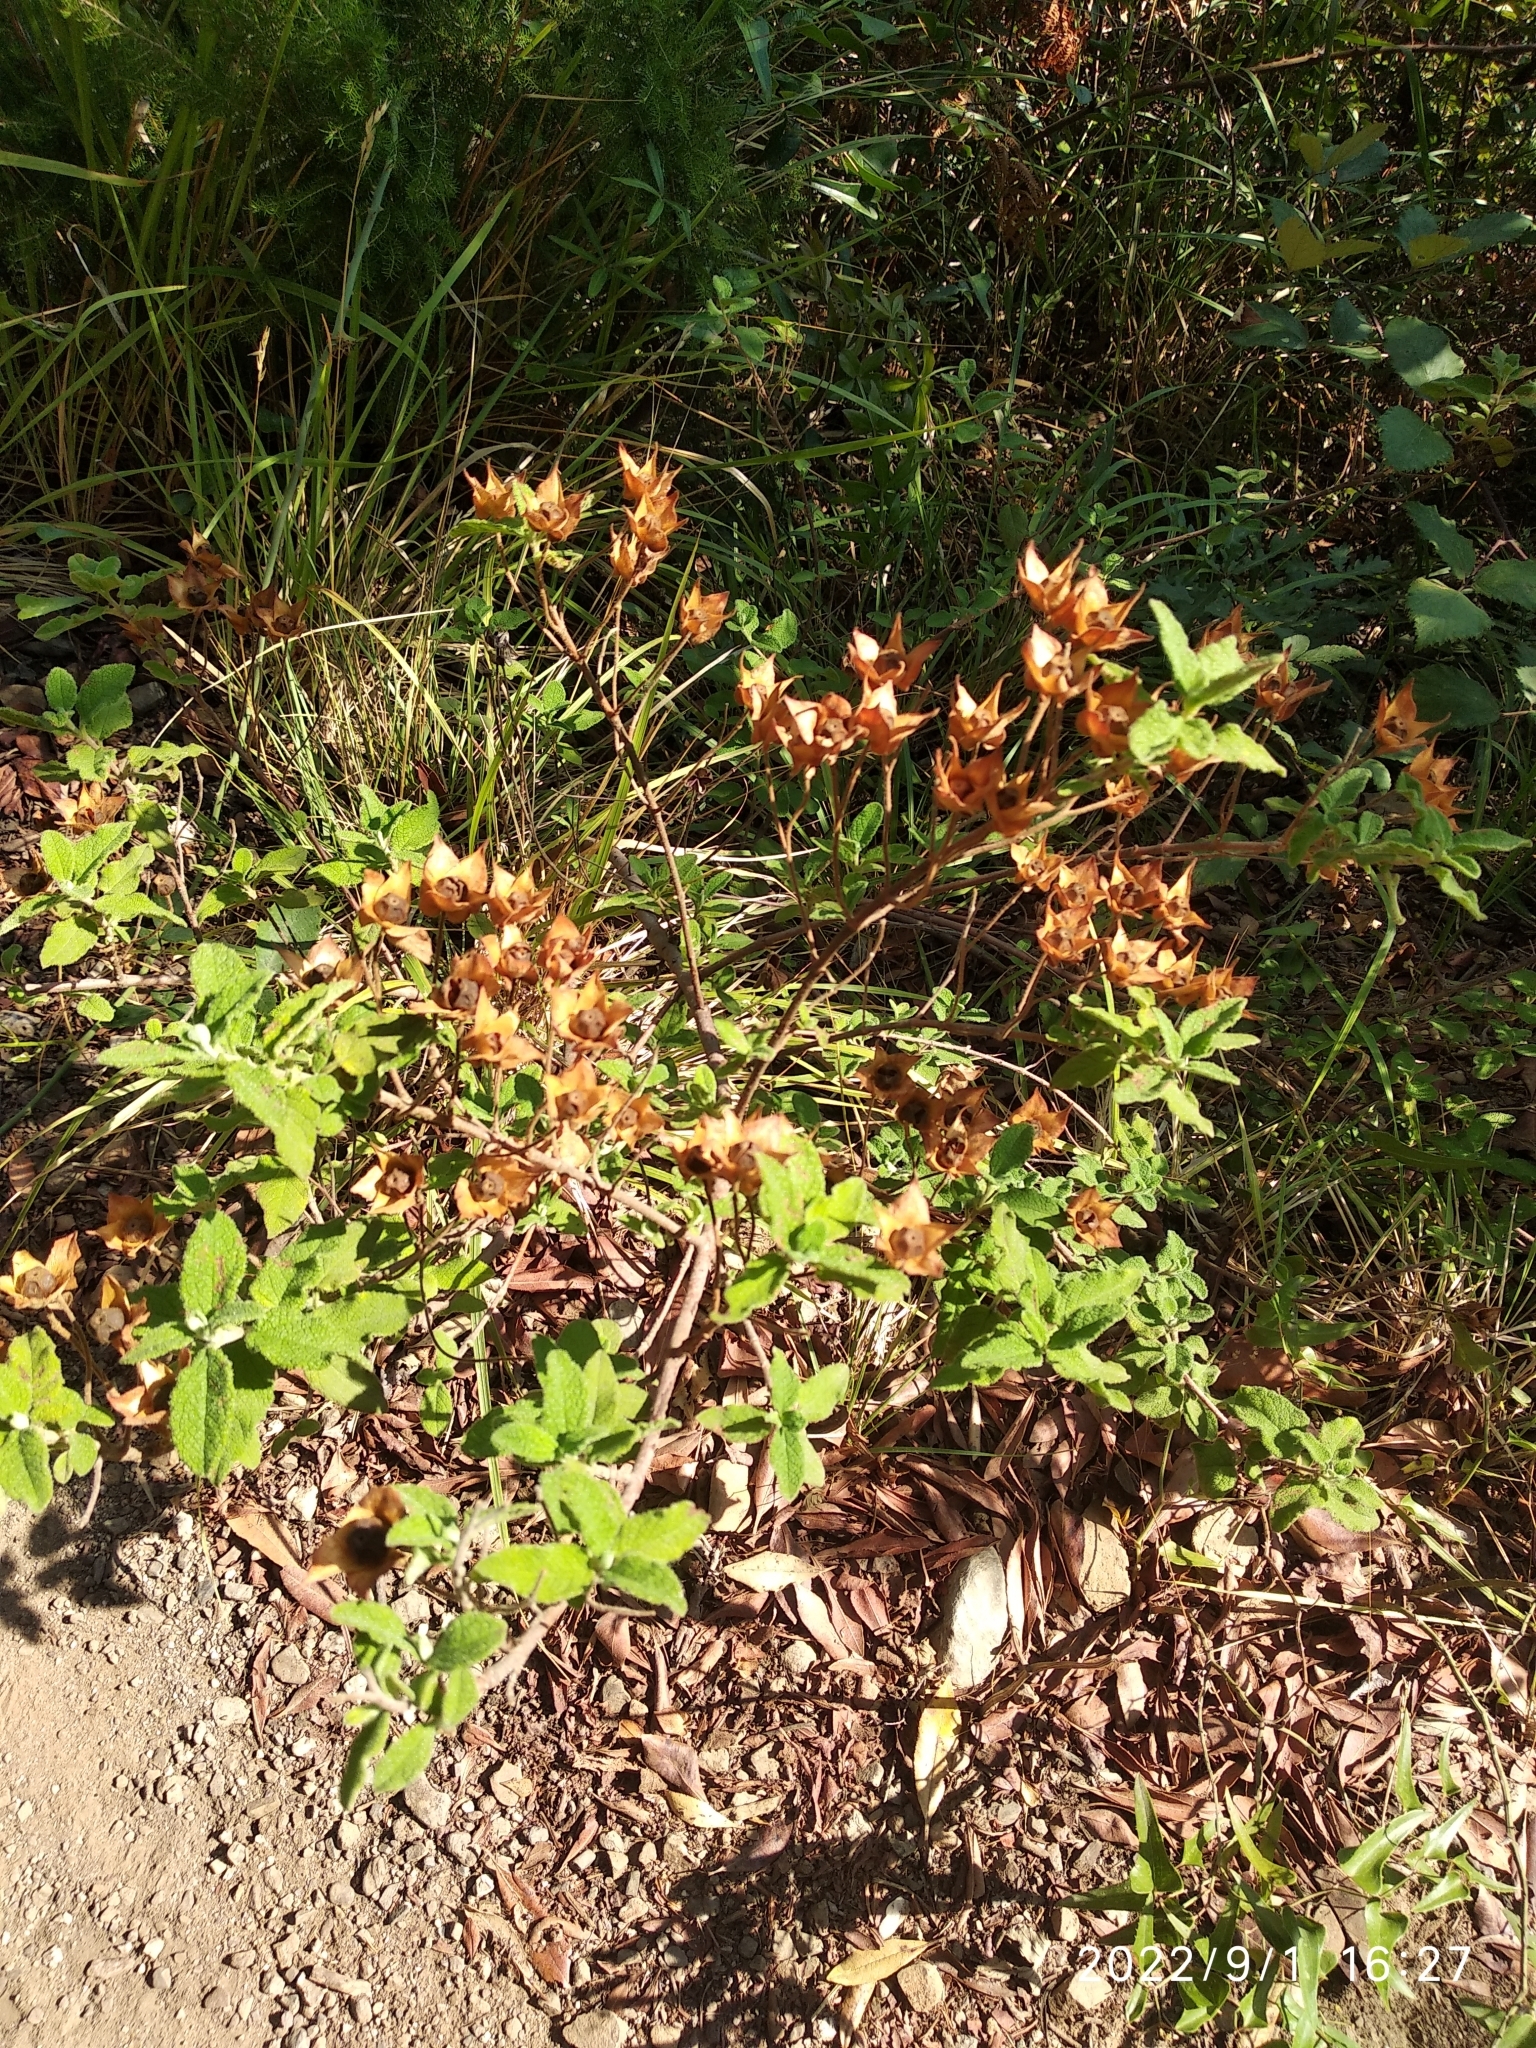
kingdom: Plantae
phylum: Tracheophyta
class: Magnoliopsida
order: Malvales
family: Cistaceae
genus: Cistus
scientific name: Cistus salviifolius
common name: Salvia cistus
